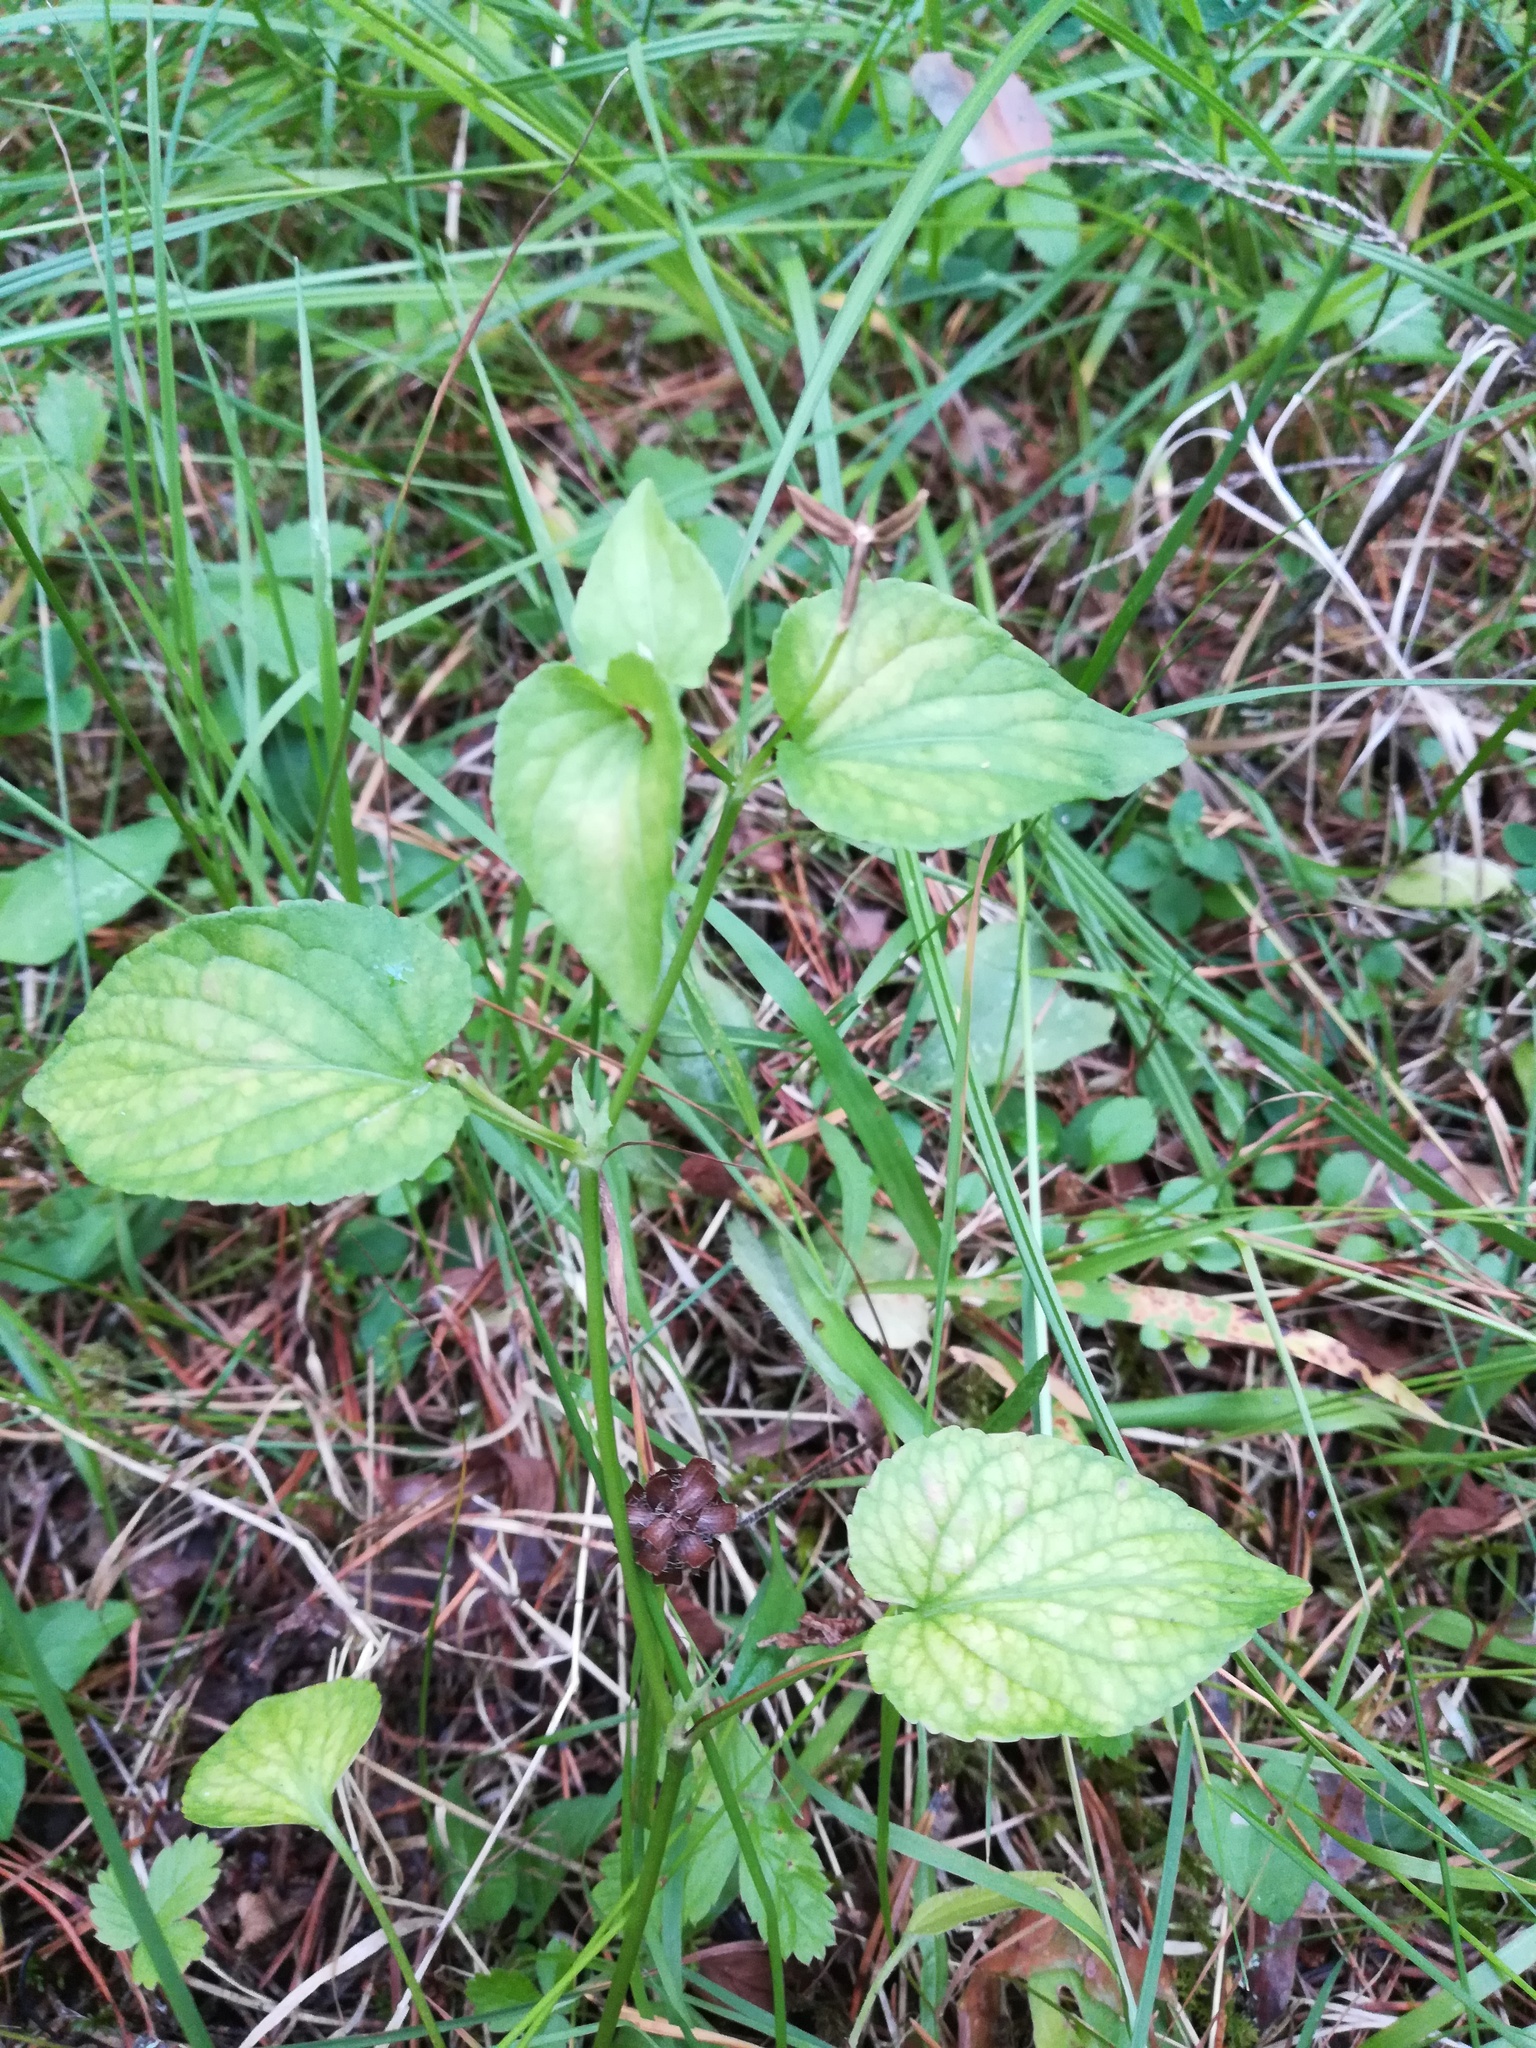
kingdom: Plantae
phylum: Tracheophyta
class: Magnoliopsida
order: Malpighiales
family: Violaceae
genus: Viola
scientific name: Viola
